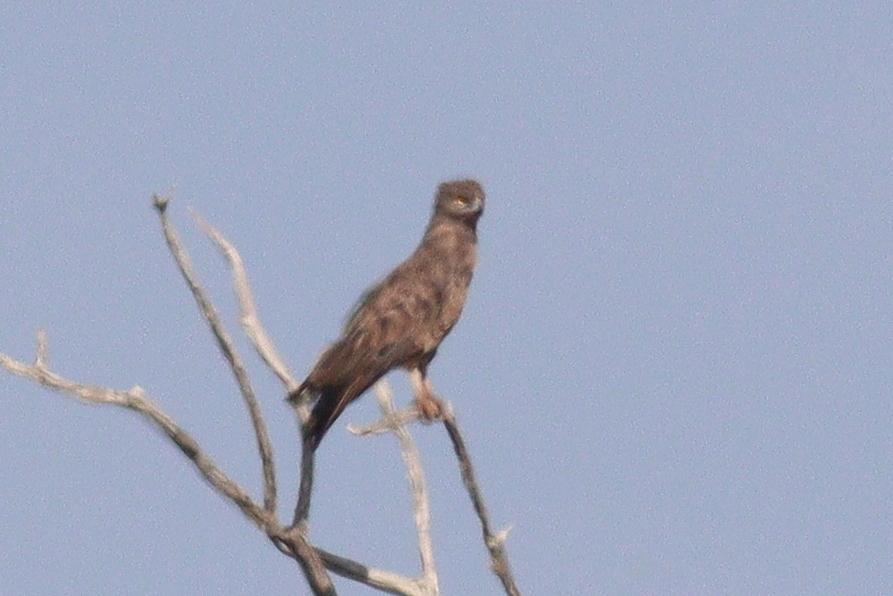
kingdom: Animalia
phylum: Chordata
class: Aves
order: Accipitriformes
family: Accipitridae
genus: Circaetus
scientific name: Circaetus cinereus
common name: Brown snake eagle
